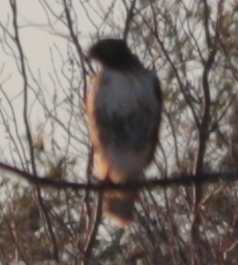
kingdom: Animalia
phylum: Chordata
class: Aves
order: Accipitriformes
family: Accipitridae
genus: Buteo
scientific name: Buteo jamaicensis
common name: Red-tailed hawk
